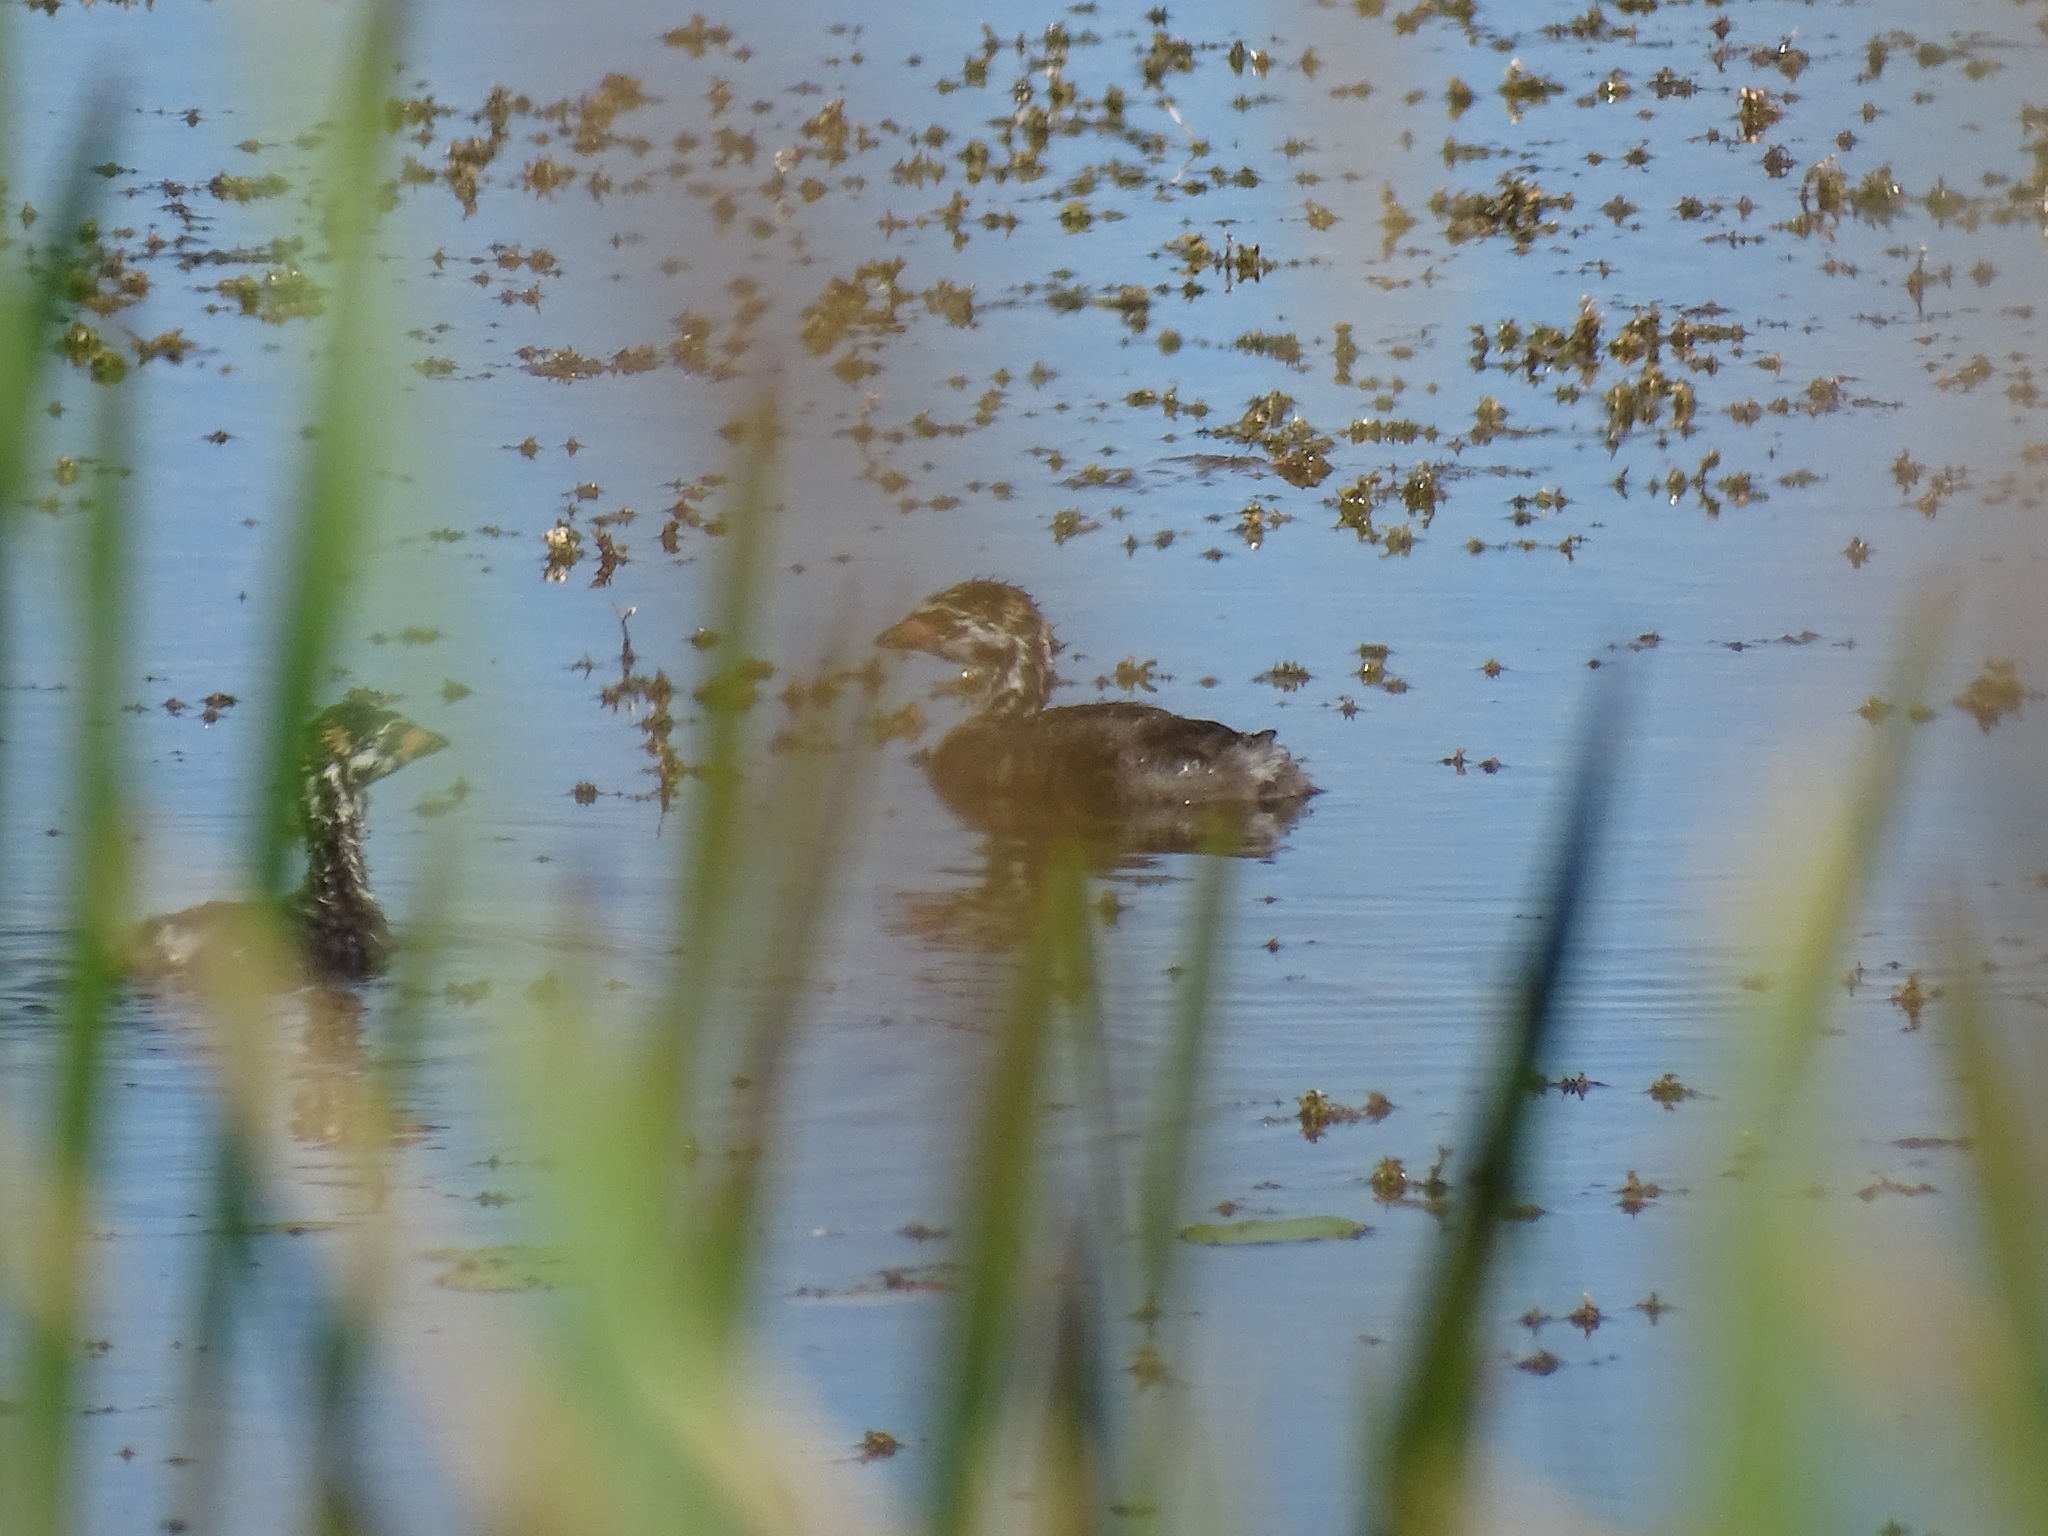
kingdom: Animalia
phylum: Chordata
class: Aves
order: Podicipediformes
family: Podicipedidae
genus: Podilymbus
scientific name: Podilymbus podiceps
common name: Pied-billed grebe
